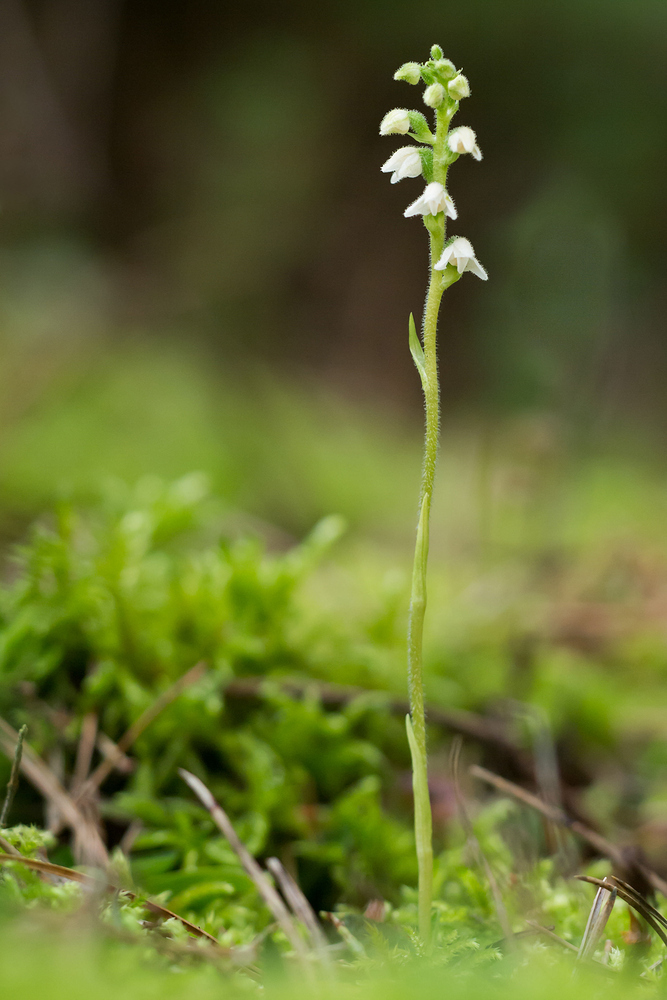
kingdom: Plantae
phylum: Tracheophyta
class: Liliopsida
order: Asparagales
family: Orchidaceae
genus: Goodyera
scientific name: Goodyera repens
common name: Creeping lady's-tresses
